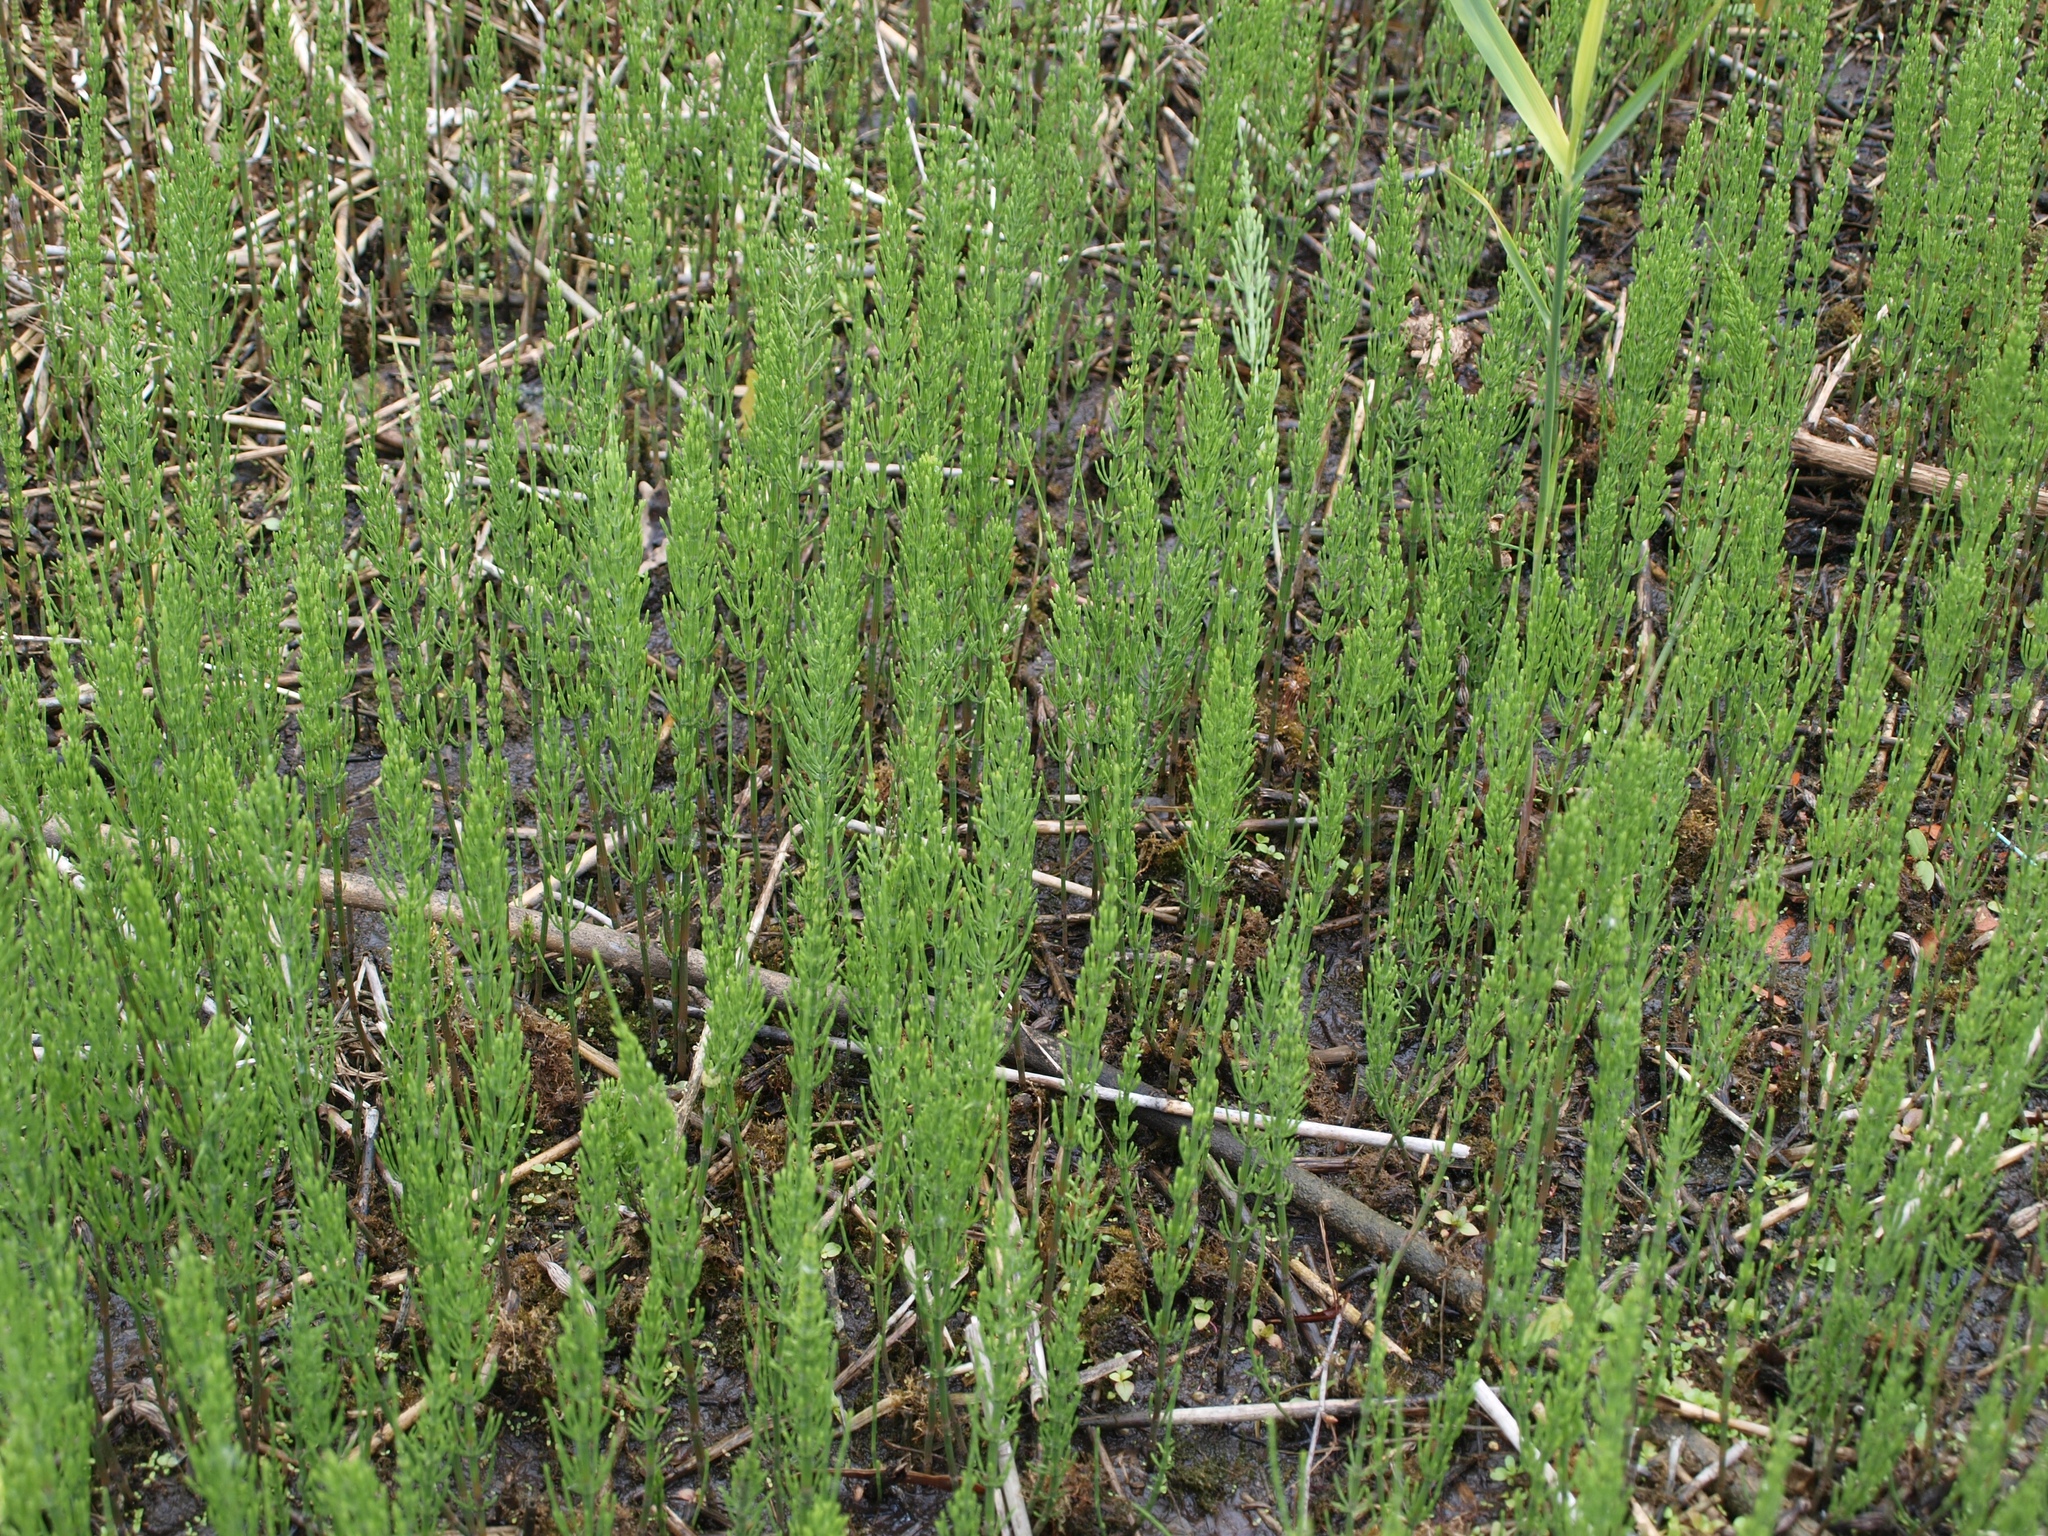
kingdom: Plantae
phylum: Tracheophyta
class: Polypodiopsida
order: Equisetales
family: Equisetaceae
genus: Equisetum
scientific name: Equisetum arvense
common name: Field horsetail
